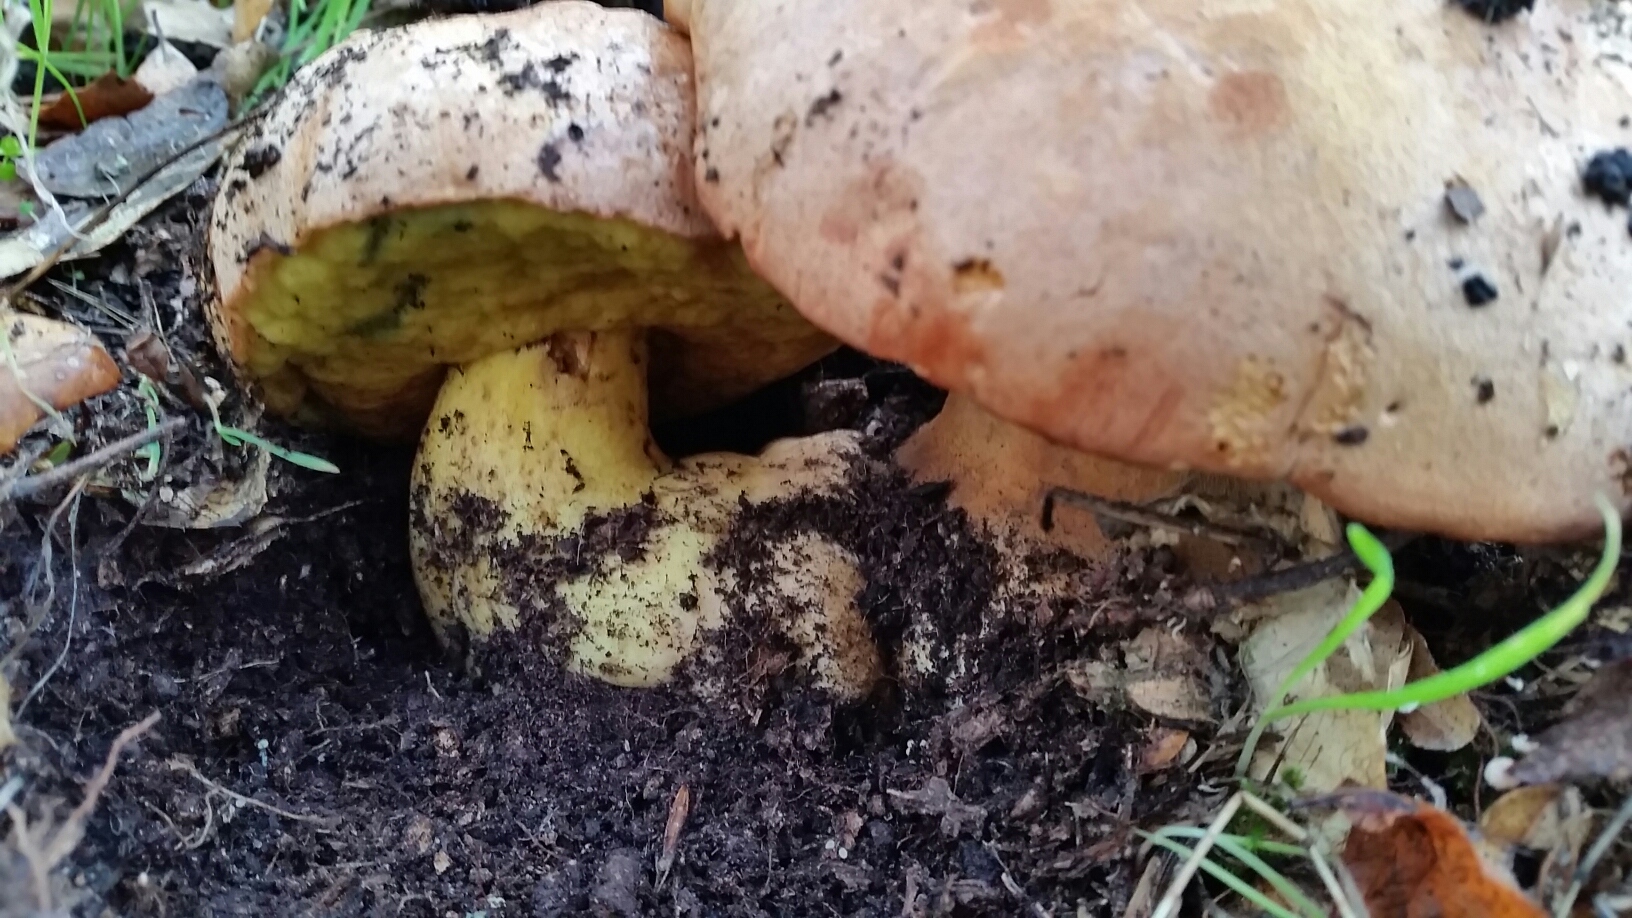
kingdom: Fungi
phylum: Basidiomycota
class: Agaricomycetes
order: Boletales
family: Boletaceae
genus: Butyriboletus
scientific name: Butyriboletus persolidus
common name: Brown butter bolete
